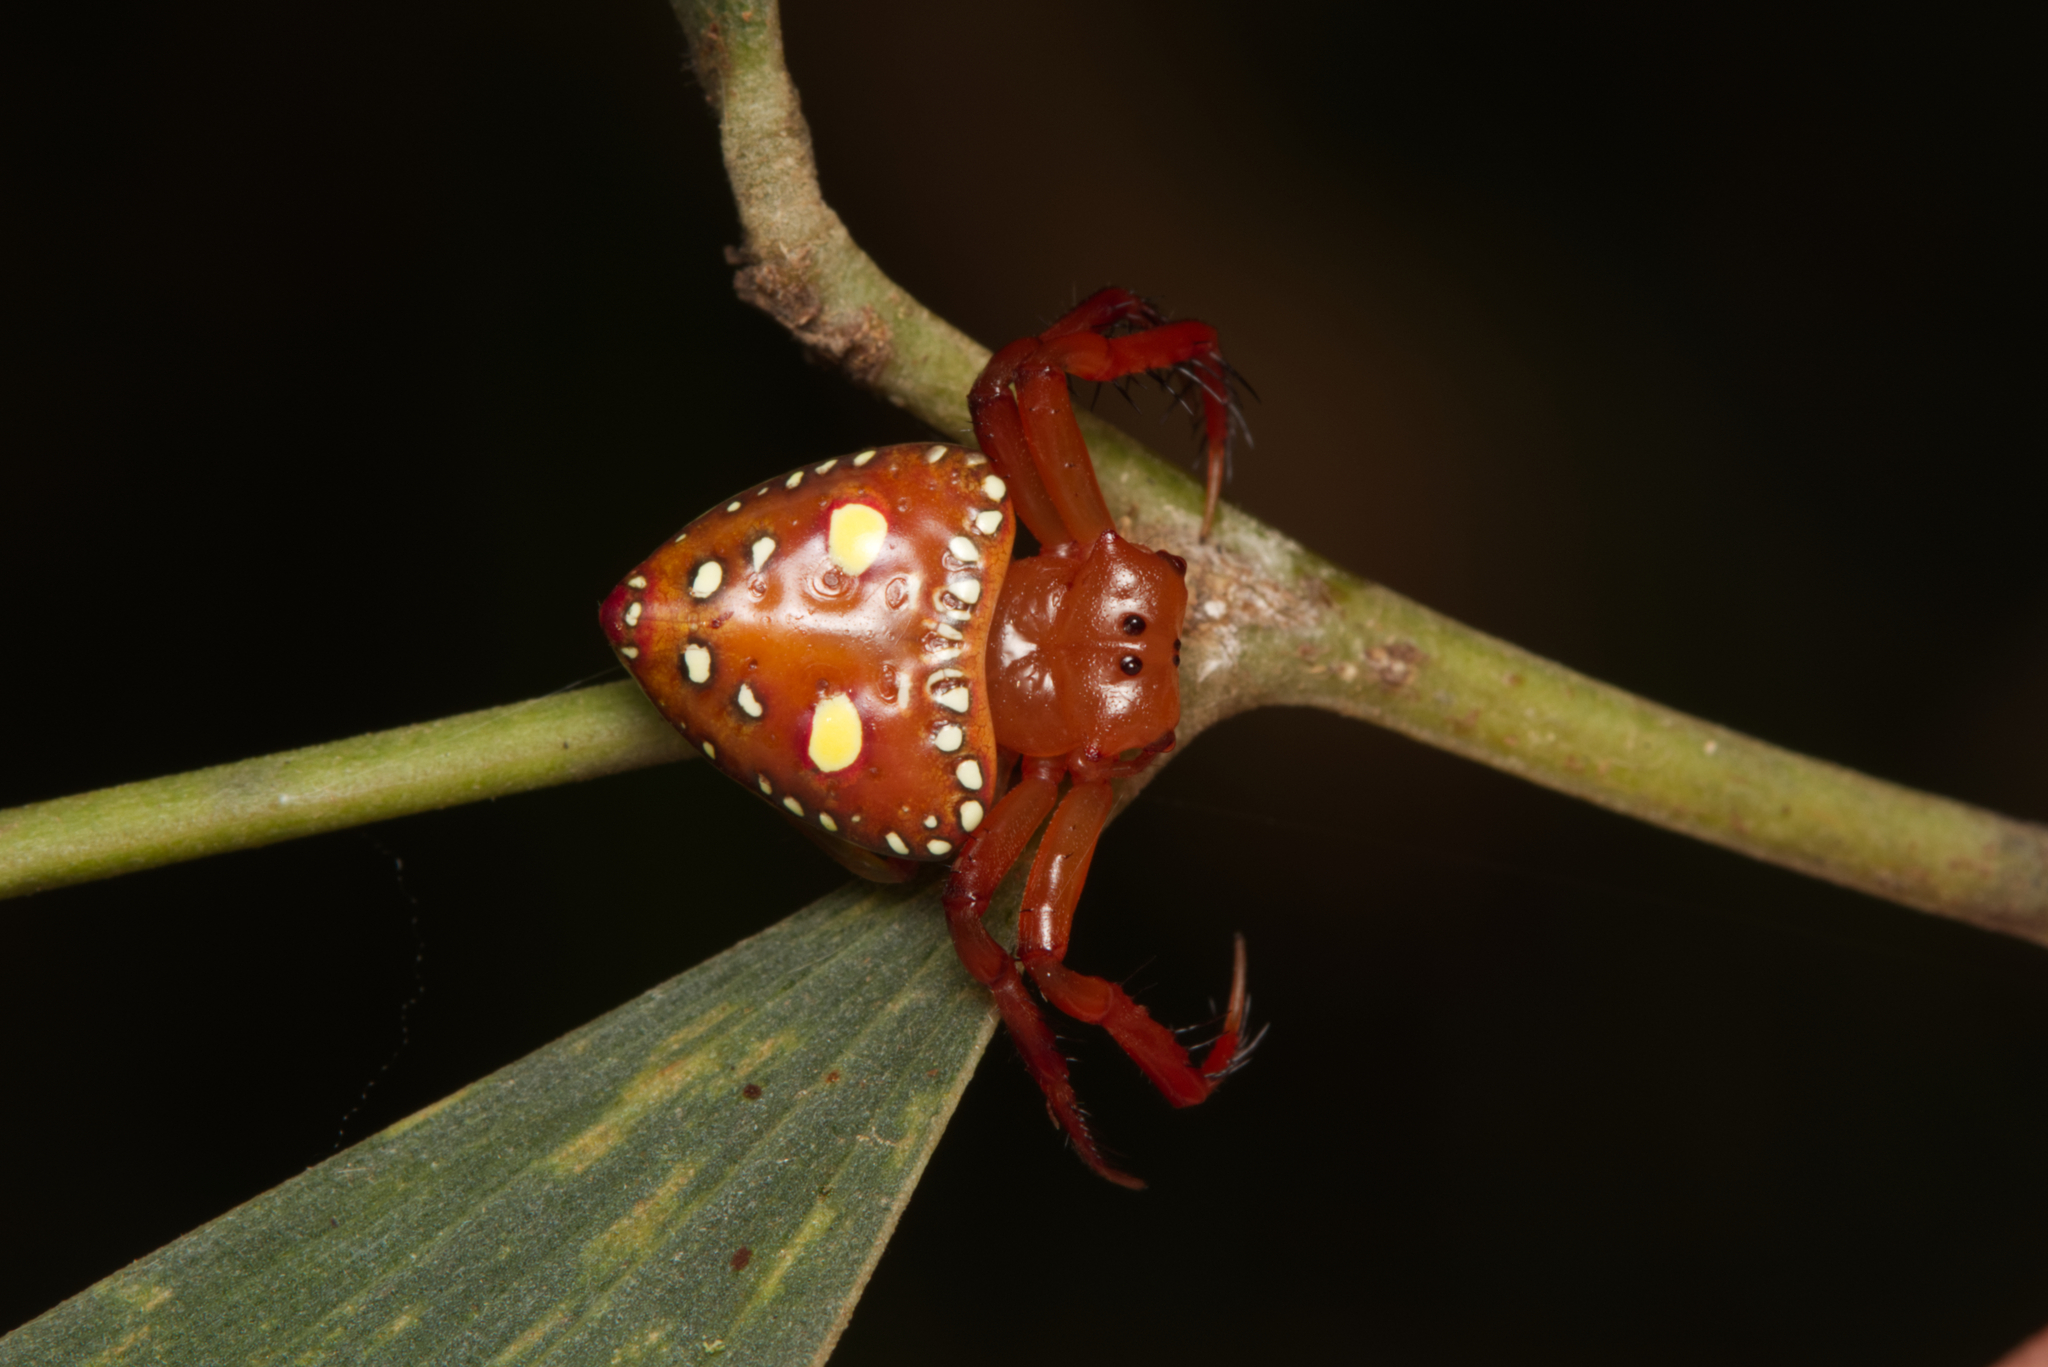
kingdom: Animalia
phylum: Arthropoda
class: Arachnida
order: Araneae
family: Arkyidae
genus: Arkys
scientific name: Arkys lancearius
